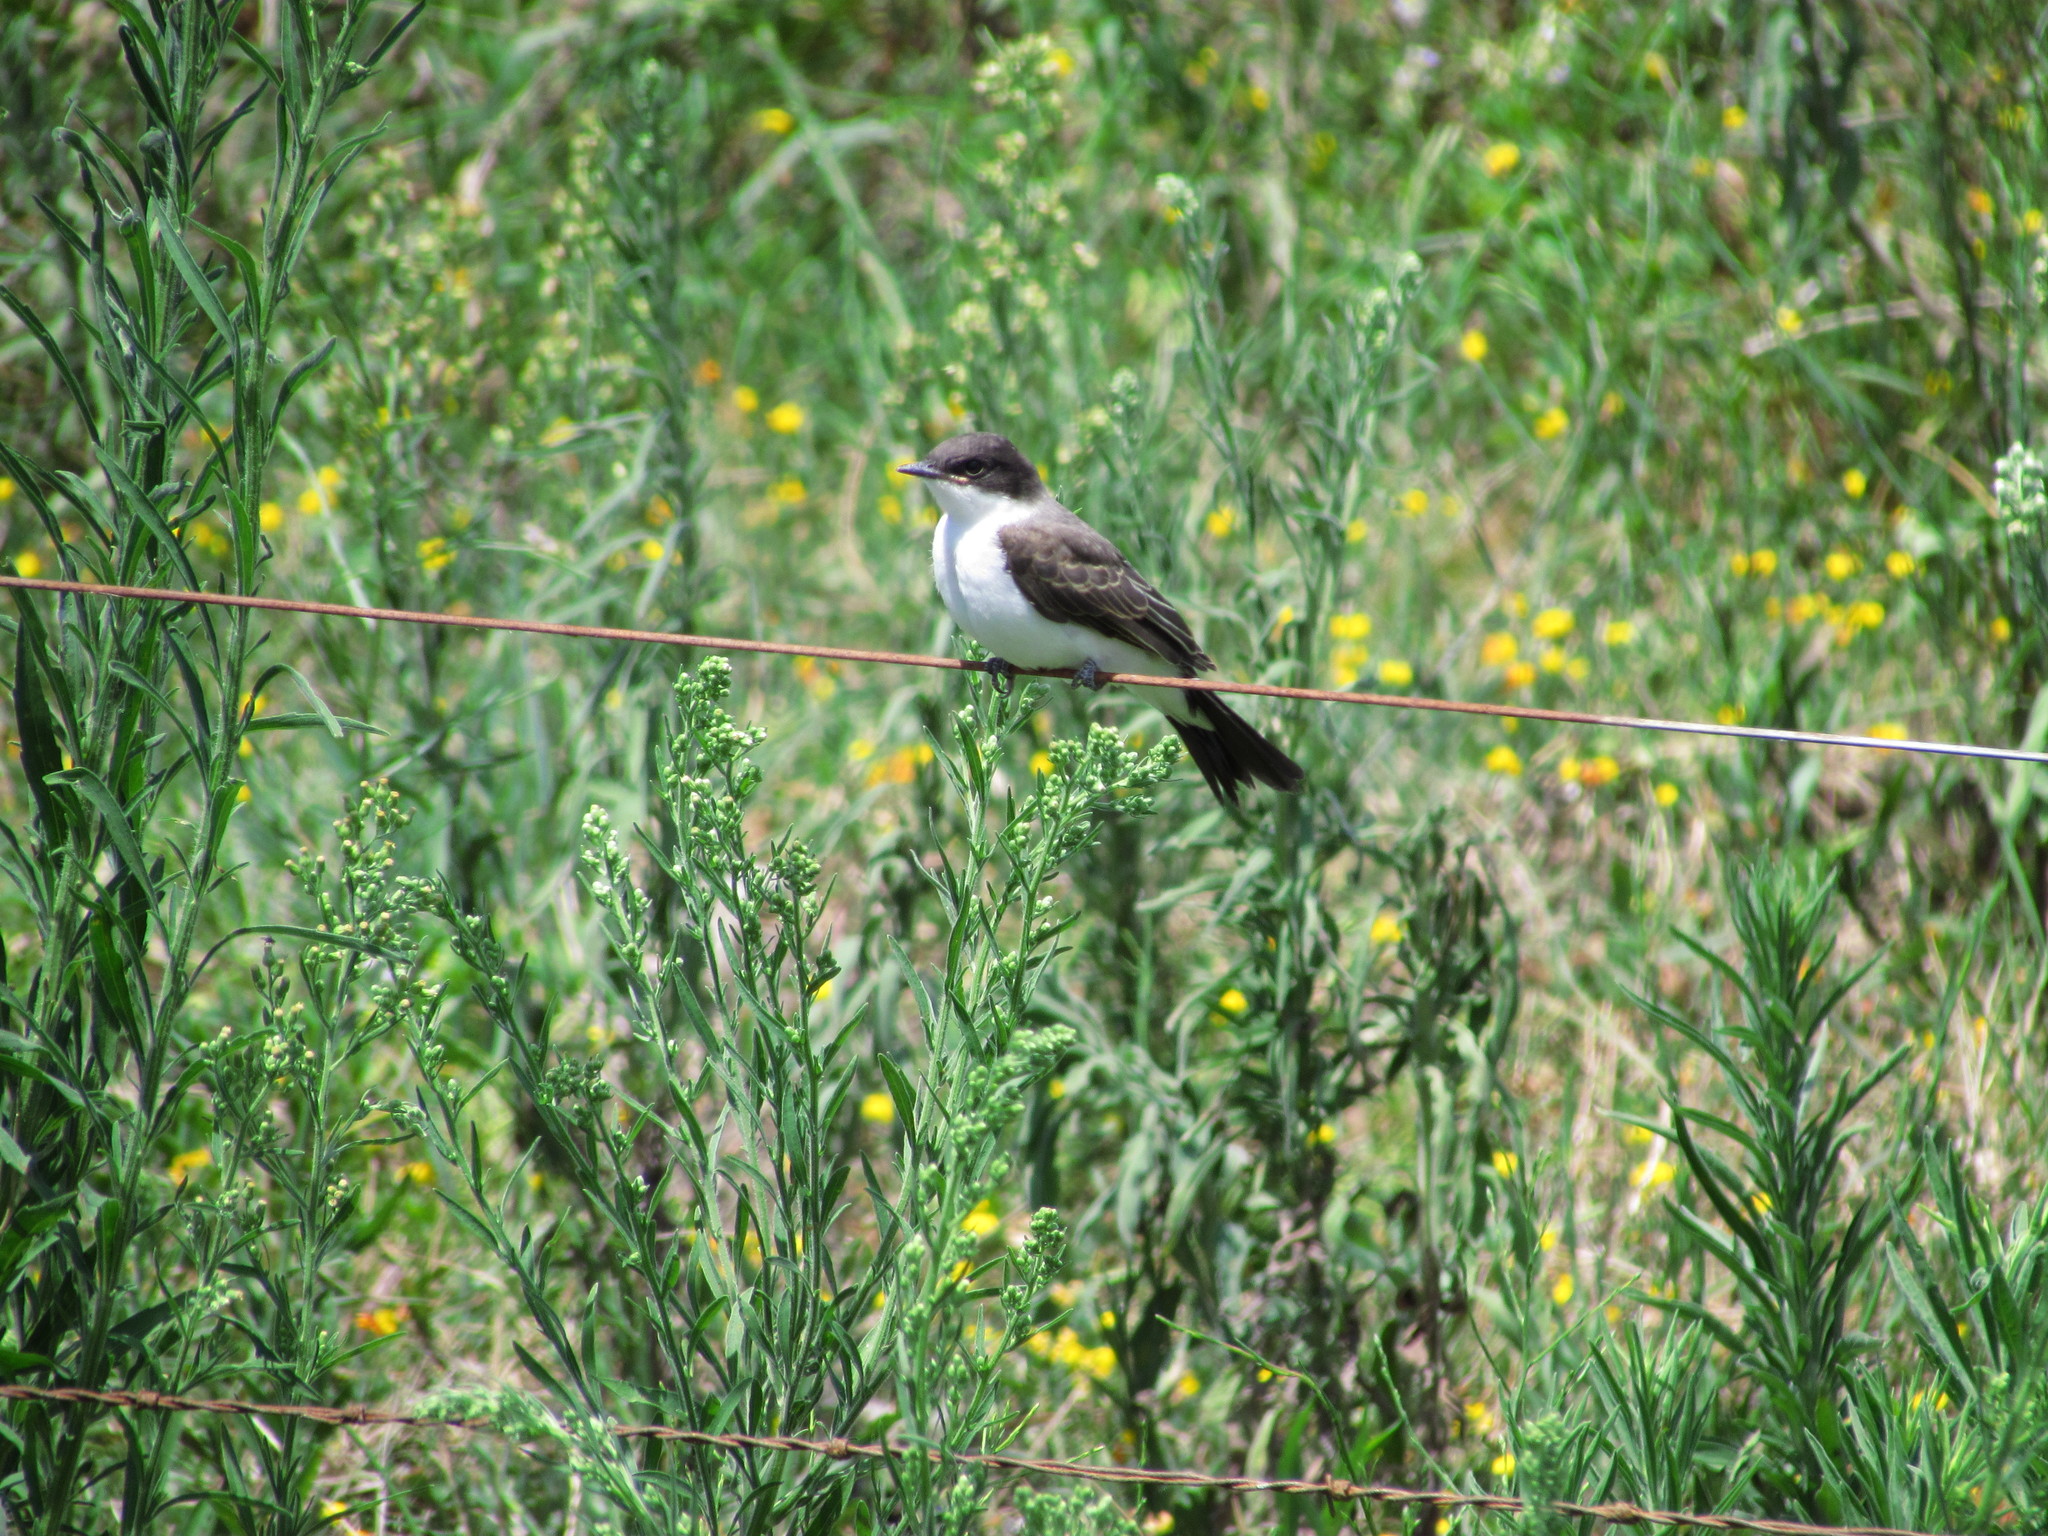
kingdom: Animalia
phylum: Chordata
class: Aves
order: Passeriformes
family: Tyrannidae
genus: Tyrannus
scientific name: Tyrannus savana
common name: Fork-tailed flycatcher
